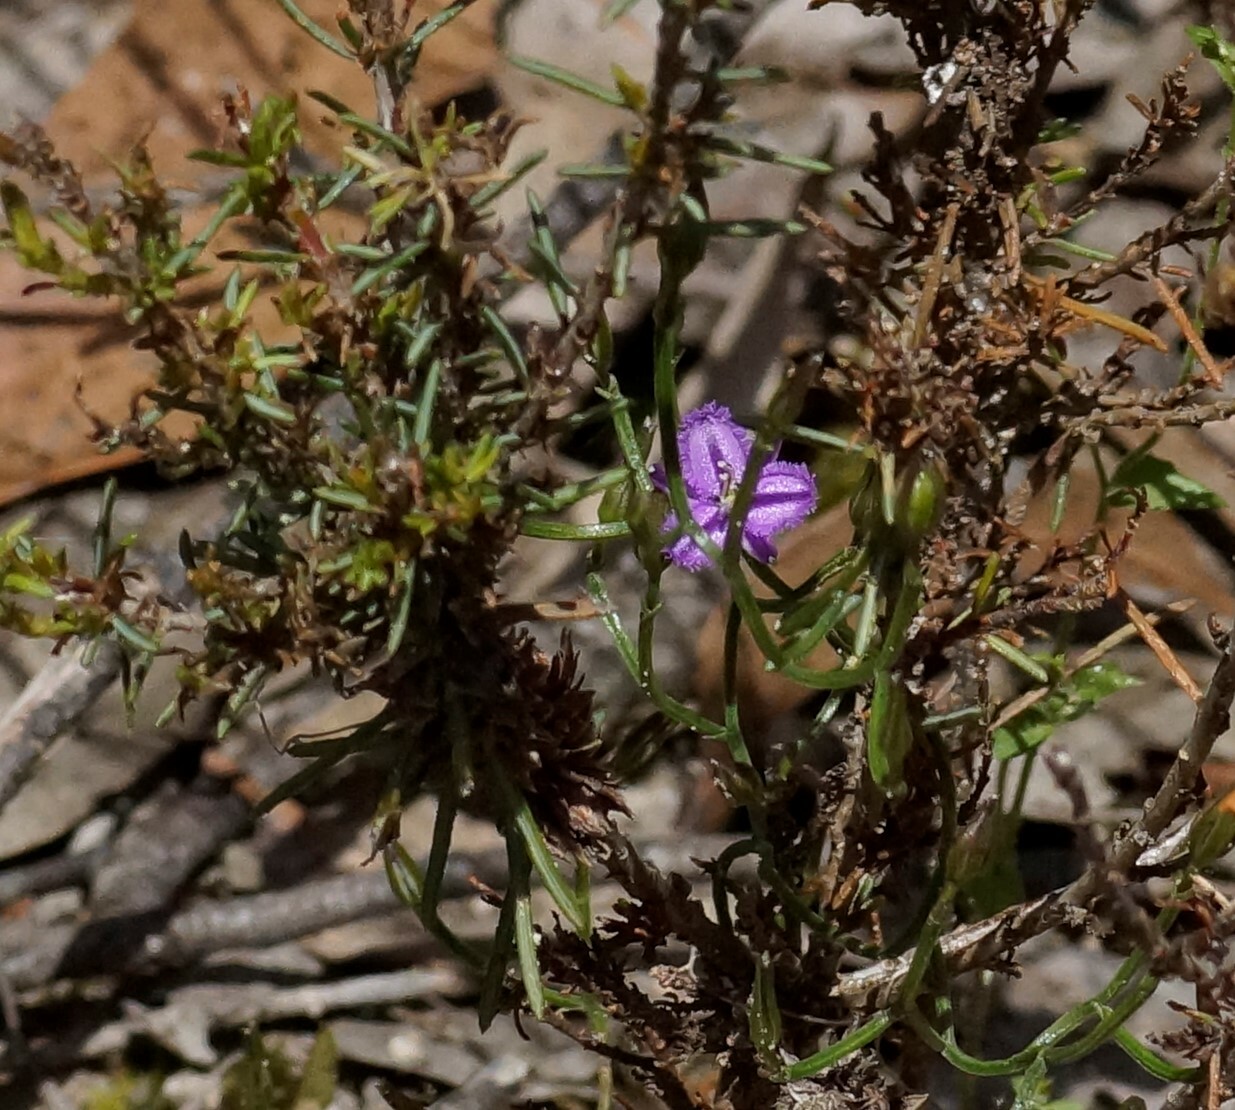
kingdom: Plantae
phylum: Tracheophyta
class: Liliopsida
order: Asparagales
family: Asparagaceae
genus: Thysanotus
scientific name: Thysanotus patersonii
